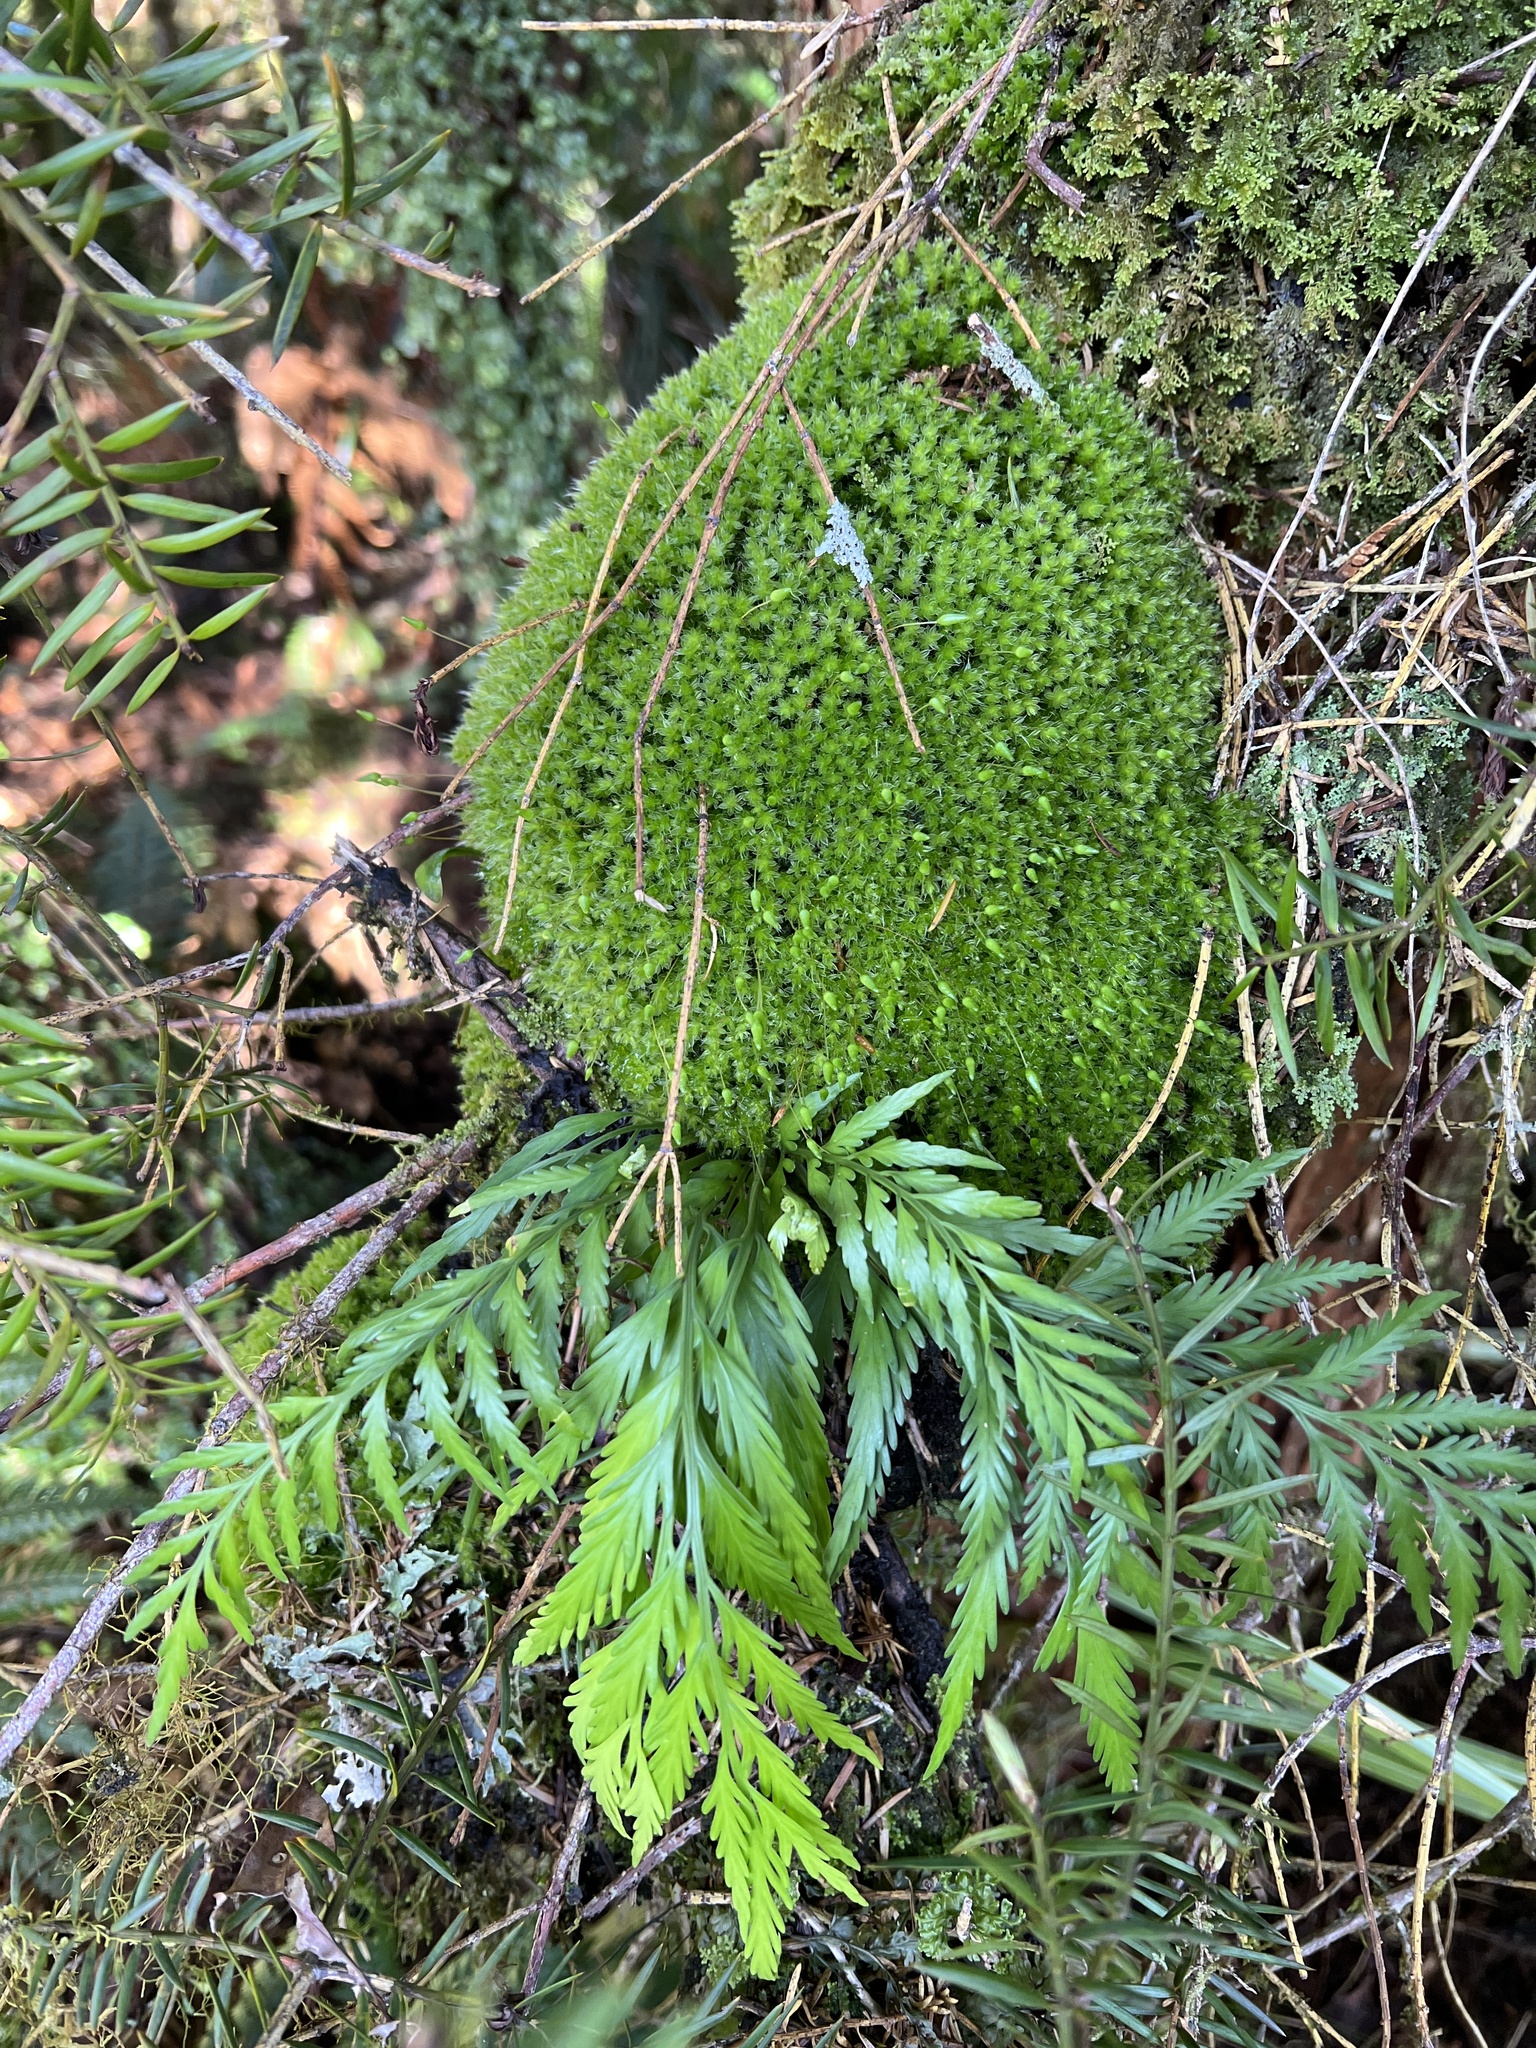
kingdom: Plantae
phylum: Tracheophyta
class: Polypodiopsida
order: Polypodiales
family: Aspleniaceae
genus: Asplenium
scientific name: Asplenium flaccidum
